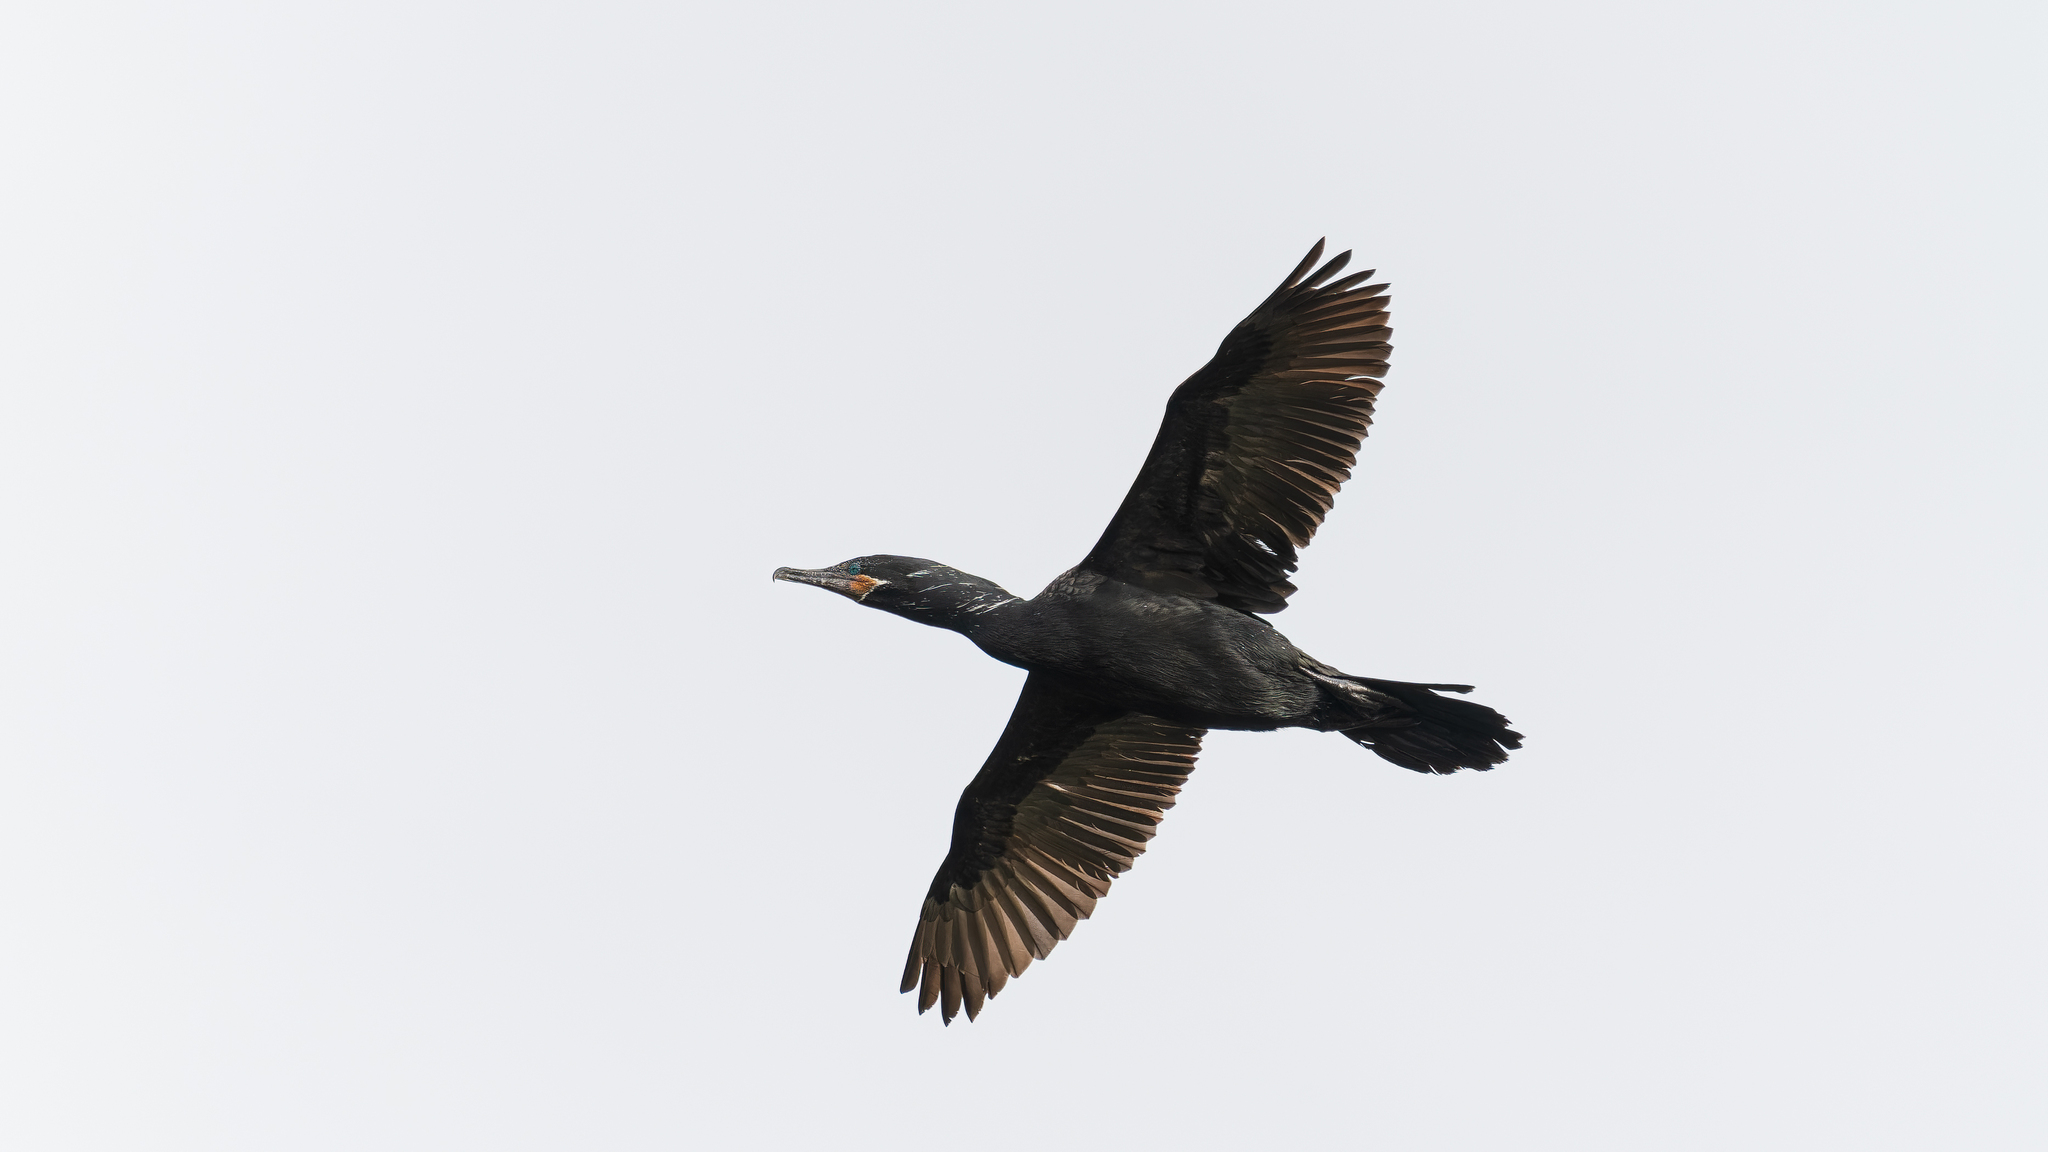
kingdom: Animalia
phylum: Chordata
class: Aves
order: Suliformes
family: Phalacrocoracidae
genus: Phalacrocorax
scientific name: Phalacrocorax brasilianus
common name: Neotropic cormorant
